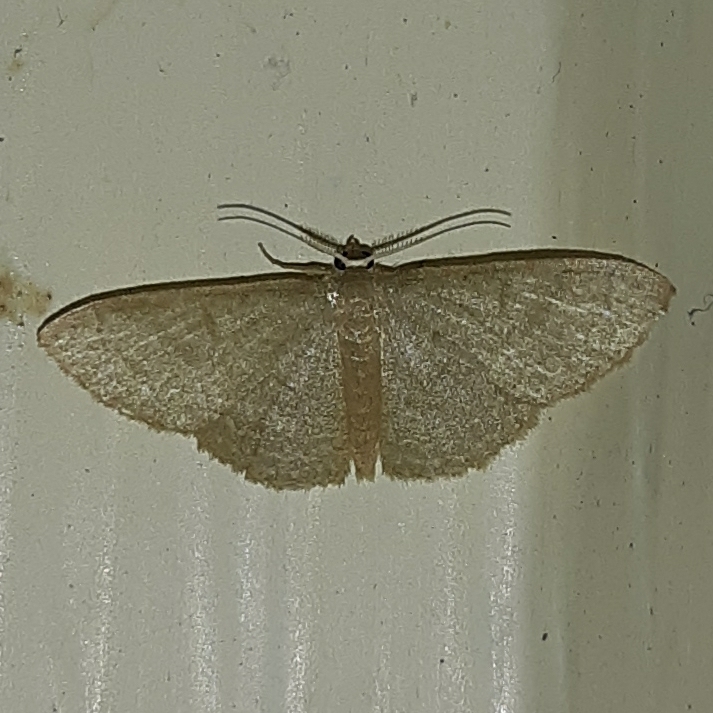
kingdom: Animalia
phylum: Arthropoda
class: Insecta
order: Lepidoptera
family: Geometridae
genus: Pleuroprucha
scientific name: Pleuroprucha insulsaria
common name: Common tan wave
